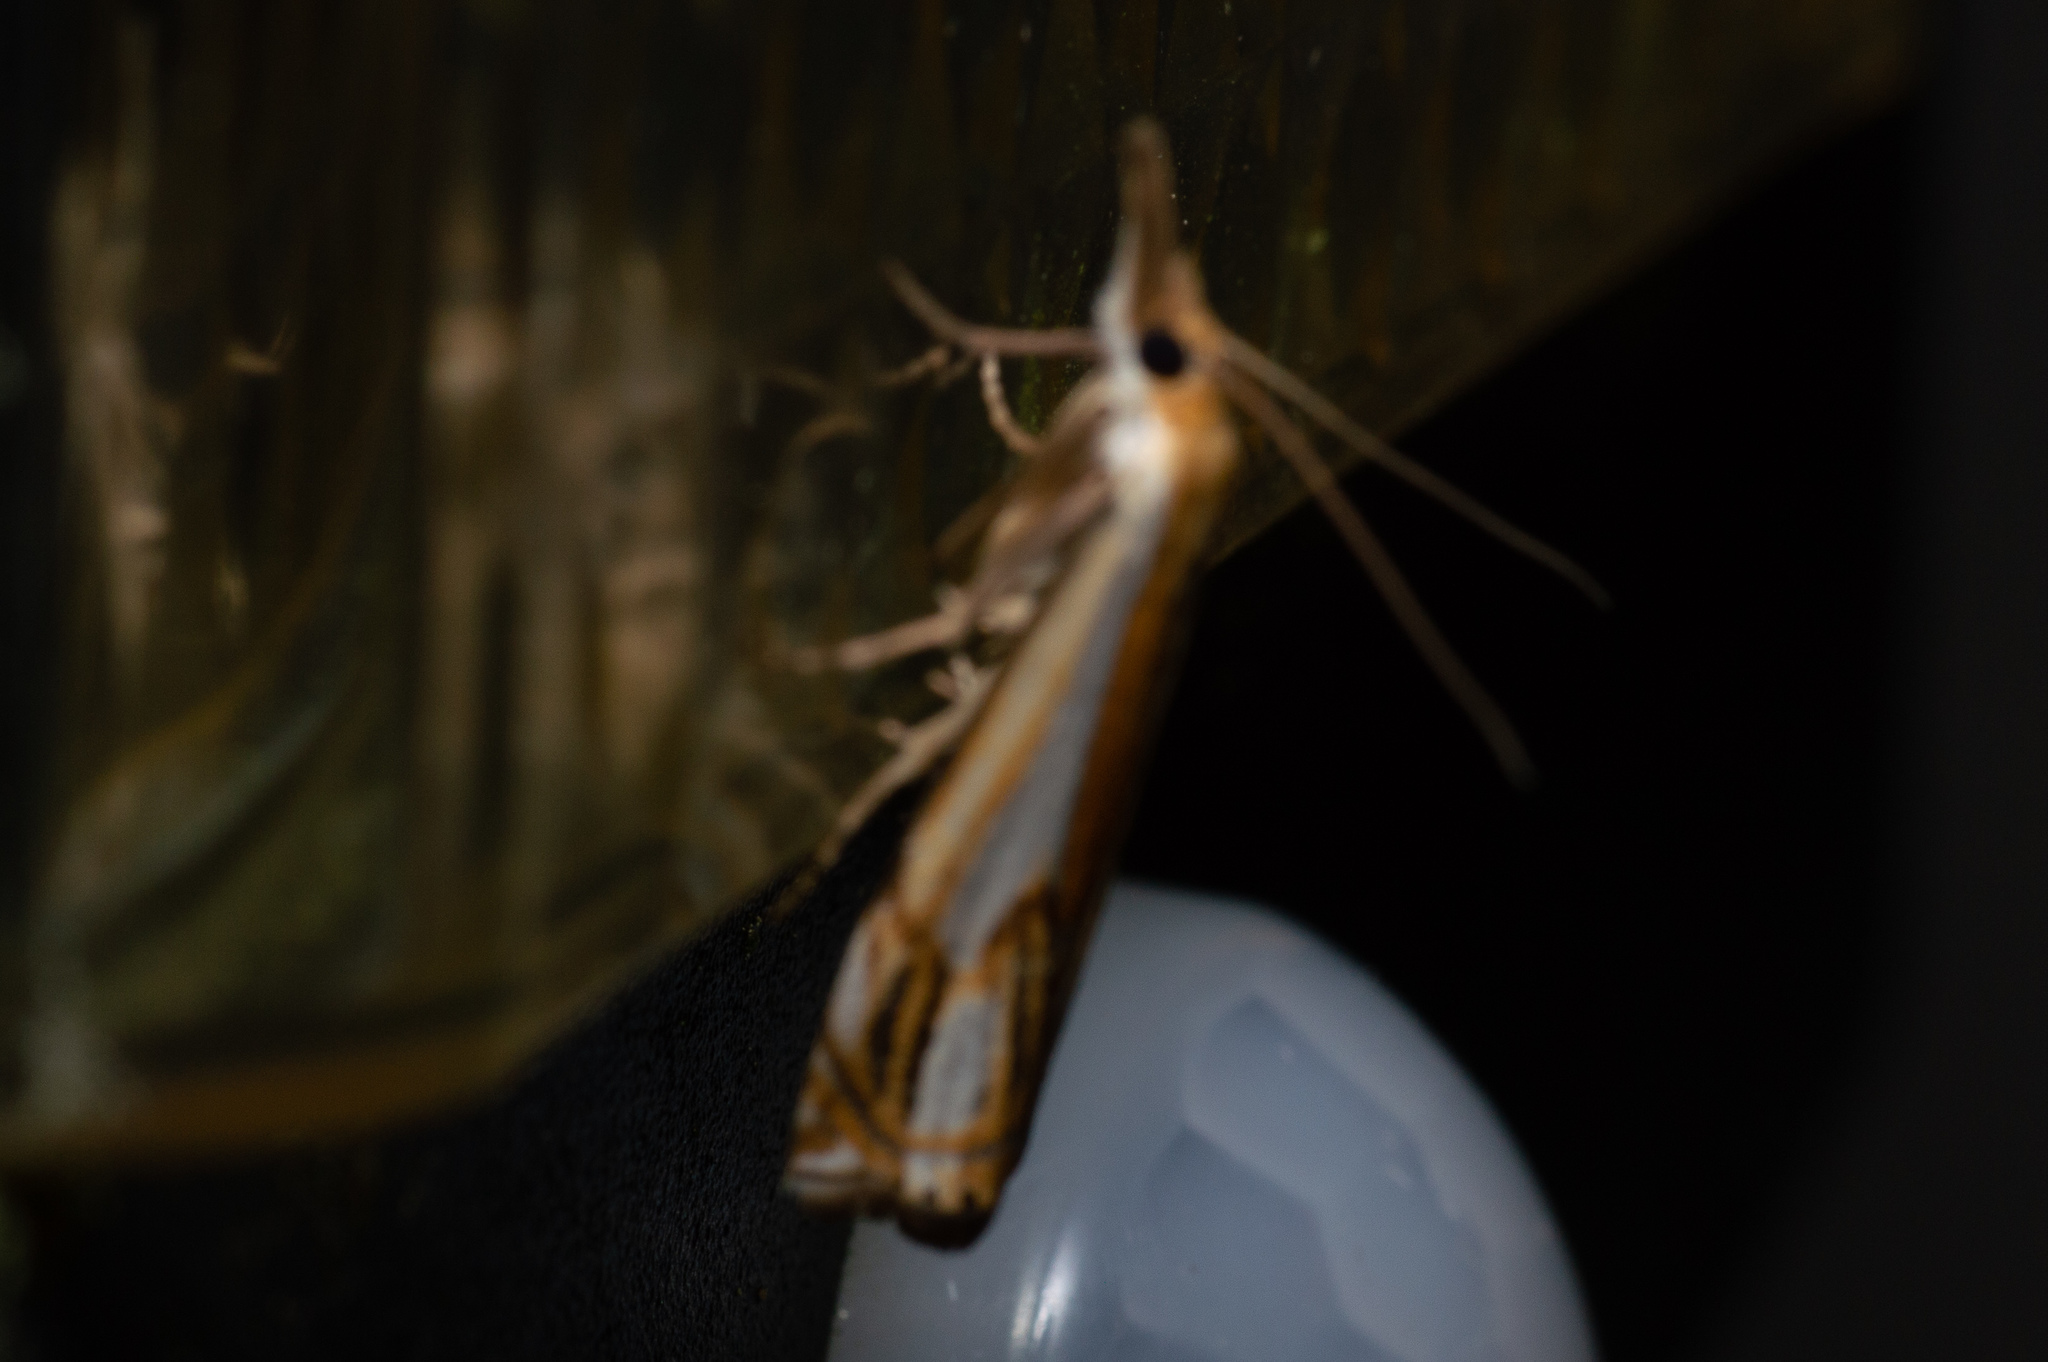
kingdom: Animalia
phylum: Arthropoda
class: Insecta
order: Lepidoptera
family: Crambidae
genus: Crambus
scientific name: Crambus agitatellus
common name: Double-banded grass-veneer
